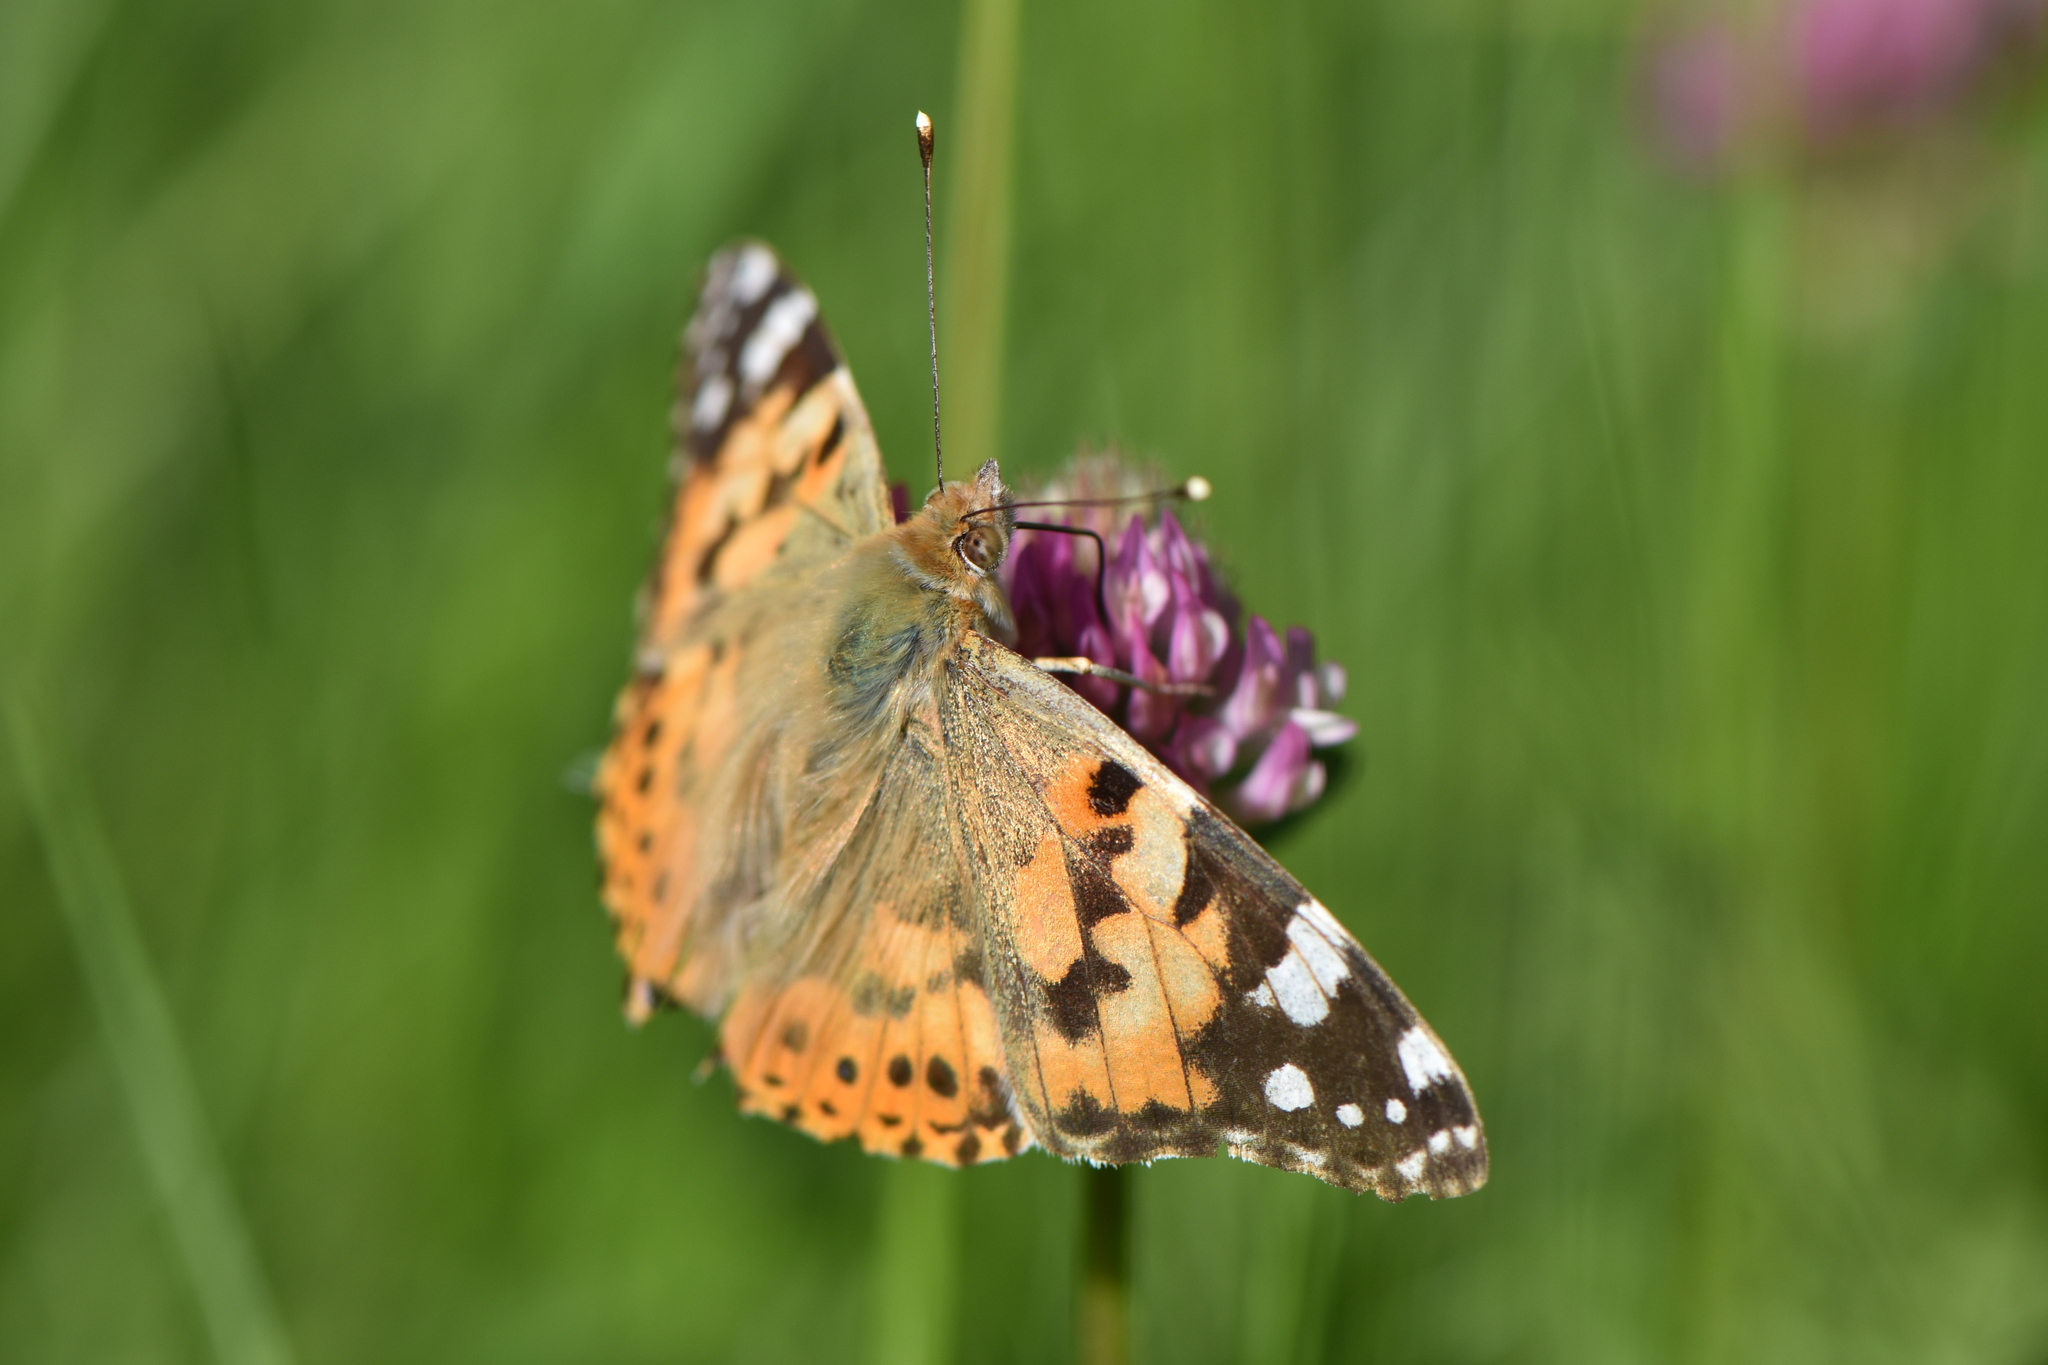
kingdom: Animalia
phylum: Arthropoda
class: Insecta
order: Lepidoptera
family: Nymphalidae
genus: Vanessa
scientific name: Vanessa cardui
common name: Painted lady
